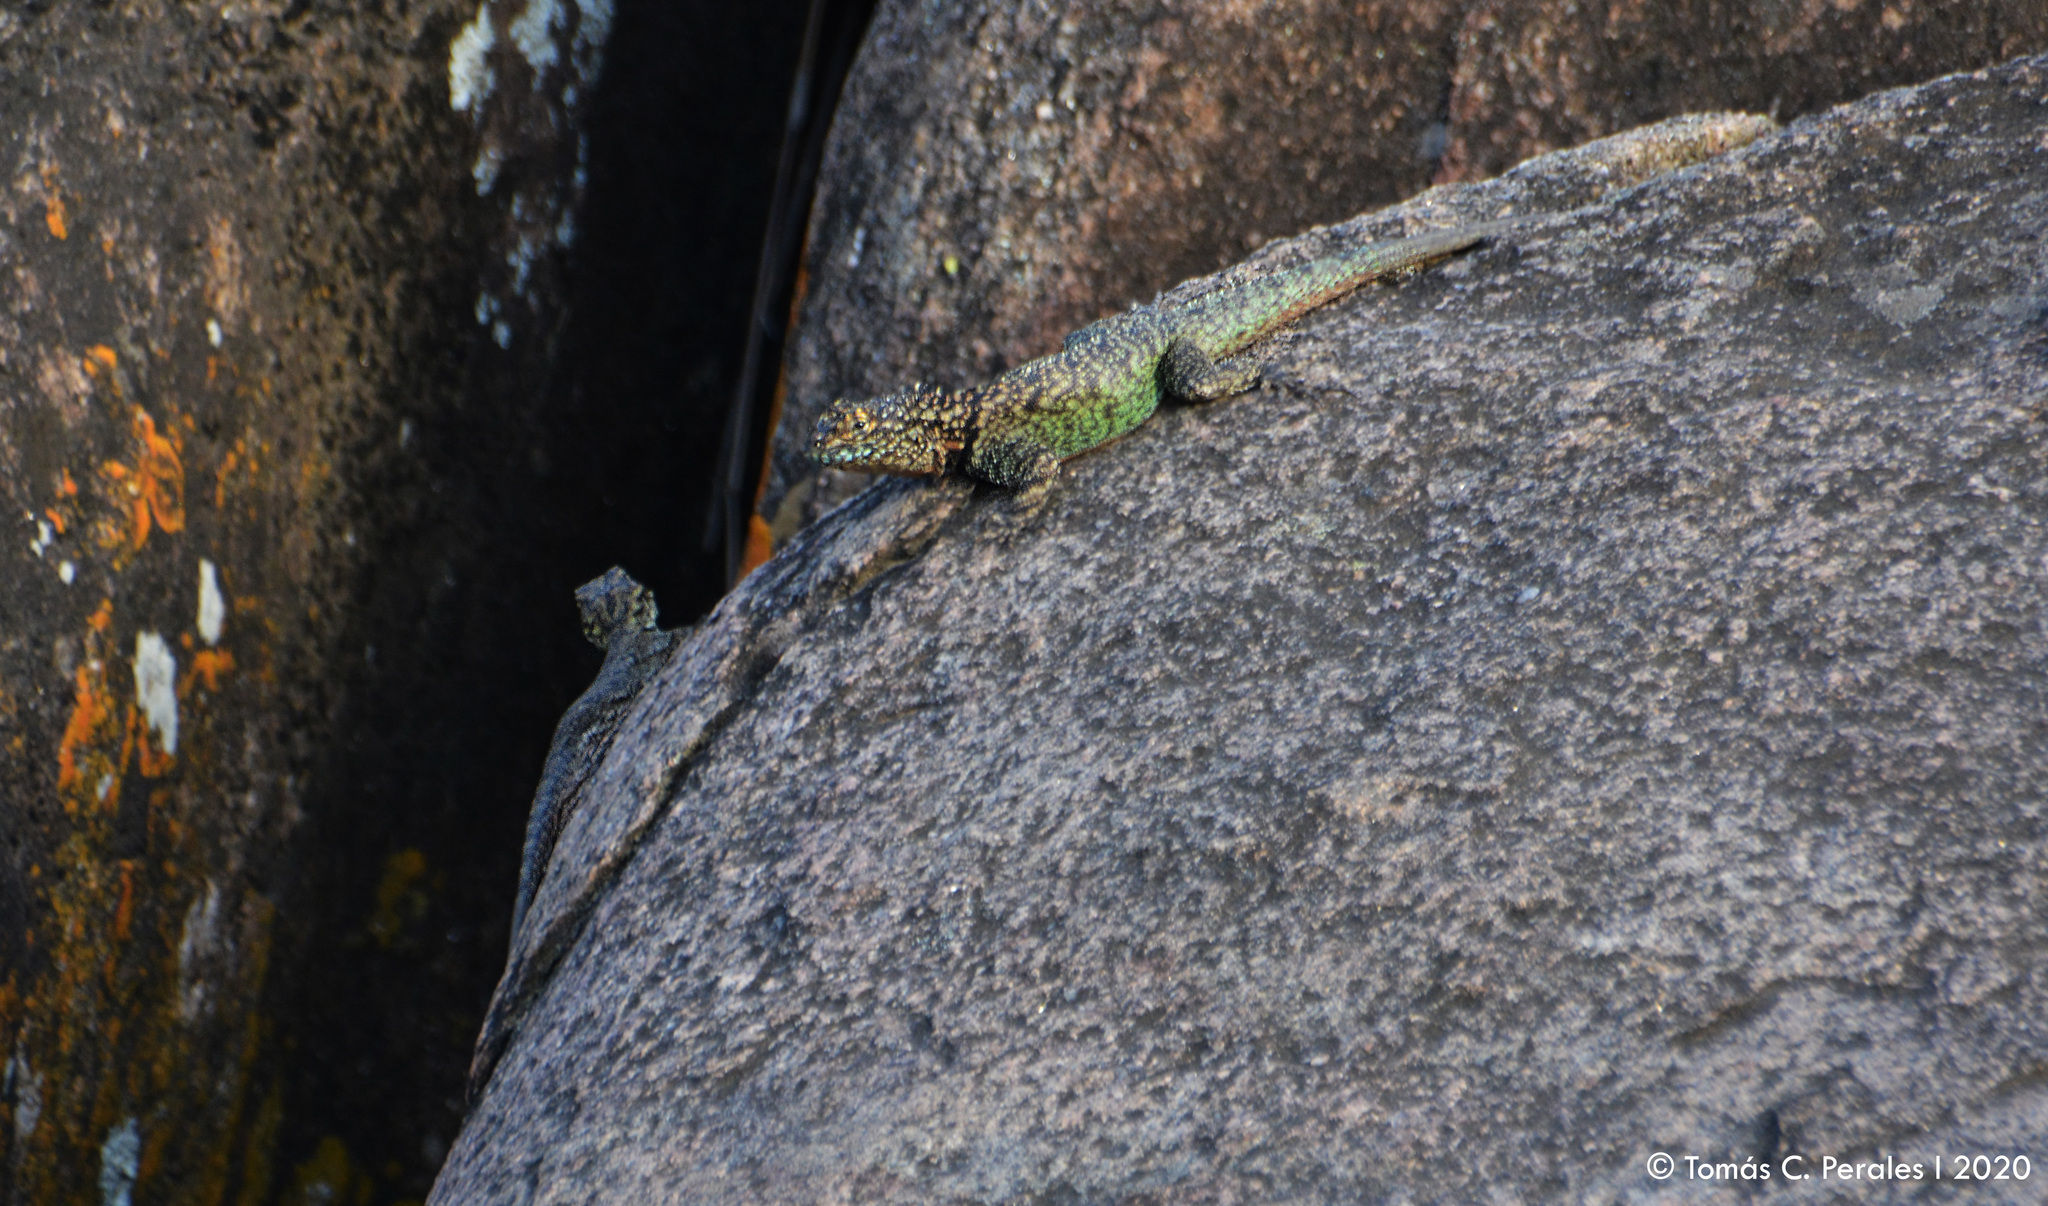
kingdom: Animalia
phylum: Chordata
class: Squamata
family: Tropiduridae
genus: Tropidurus
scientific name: Tropidurus spinulosus
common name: Spiny lava lizard
